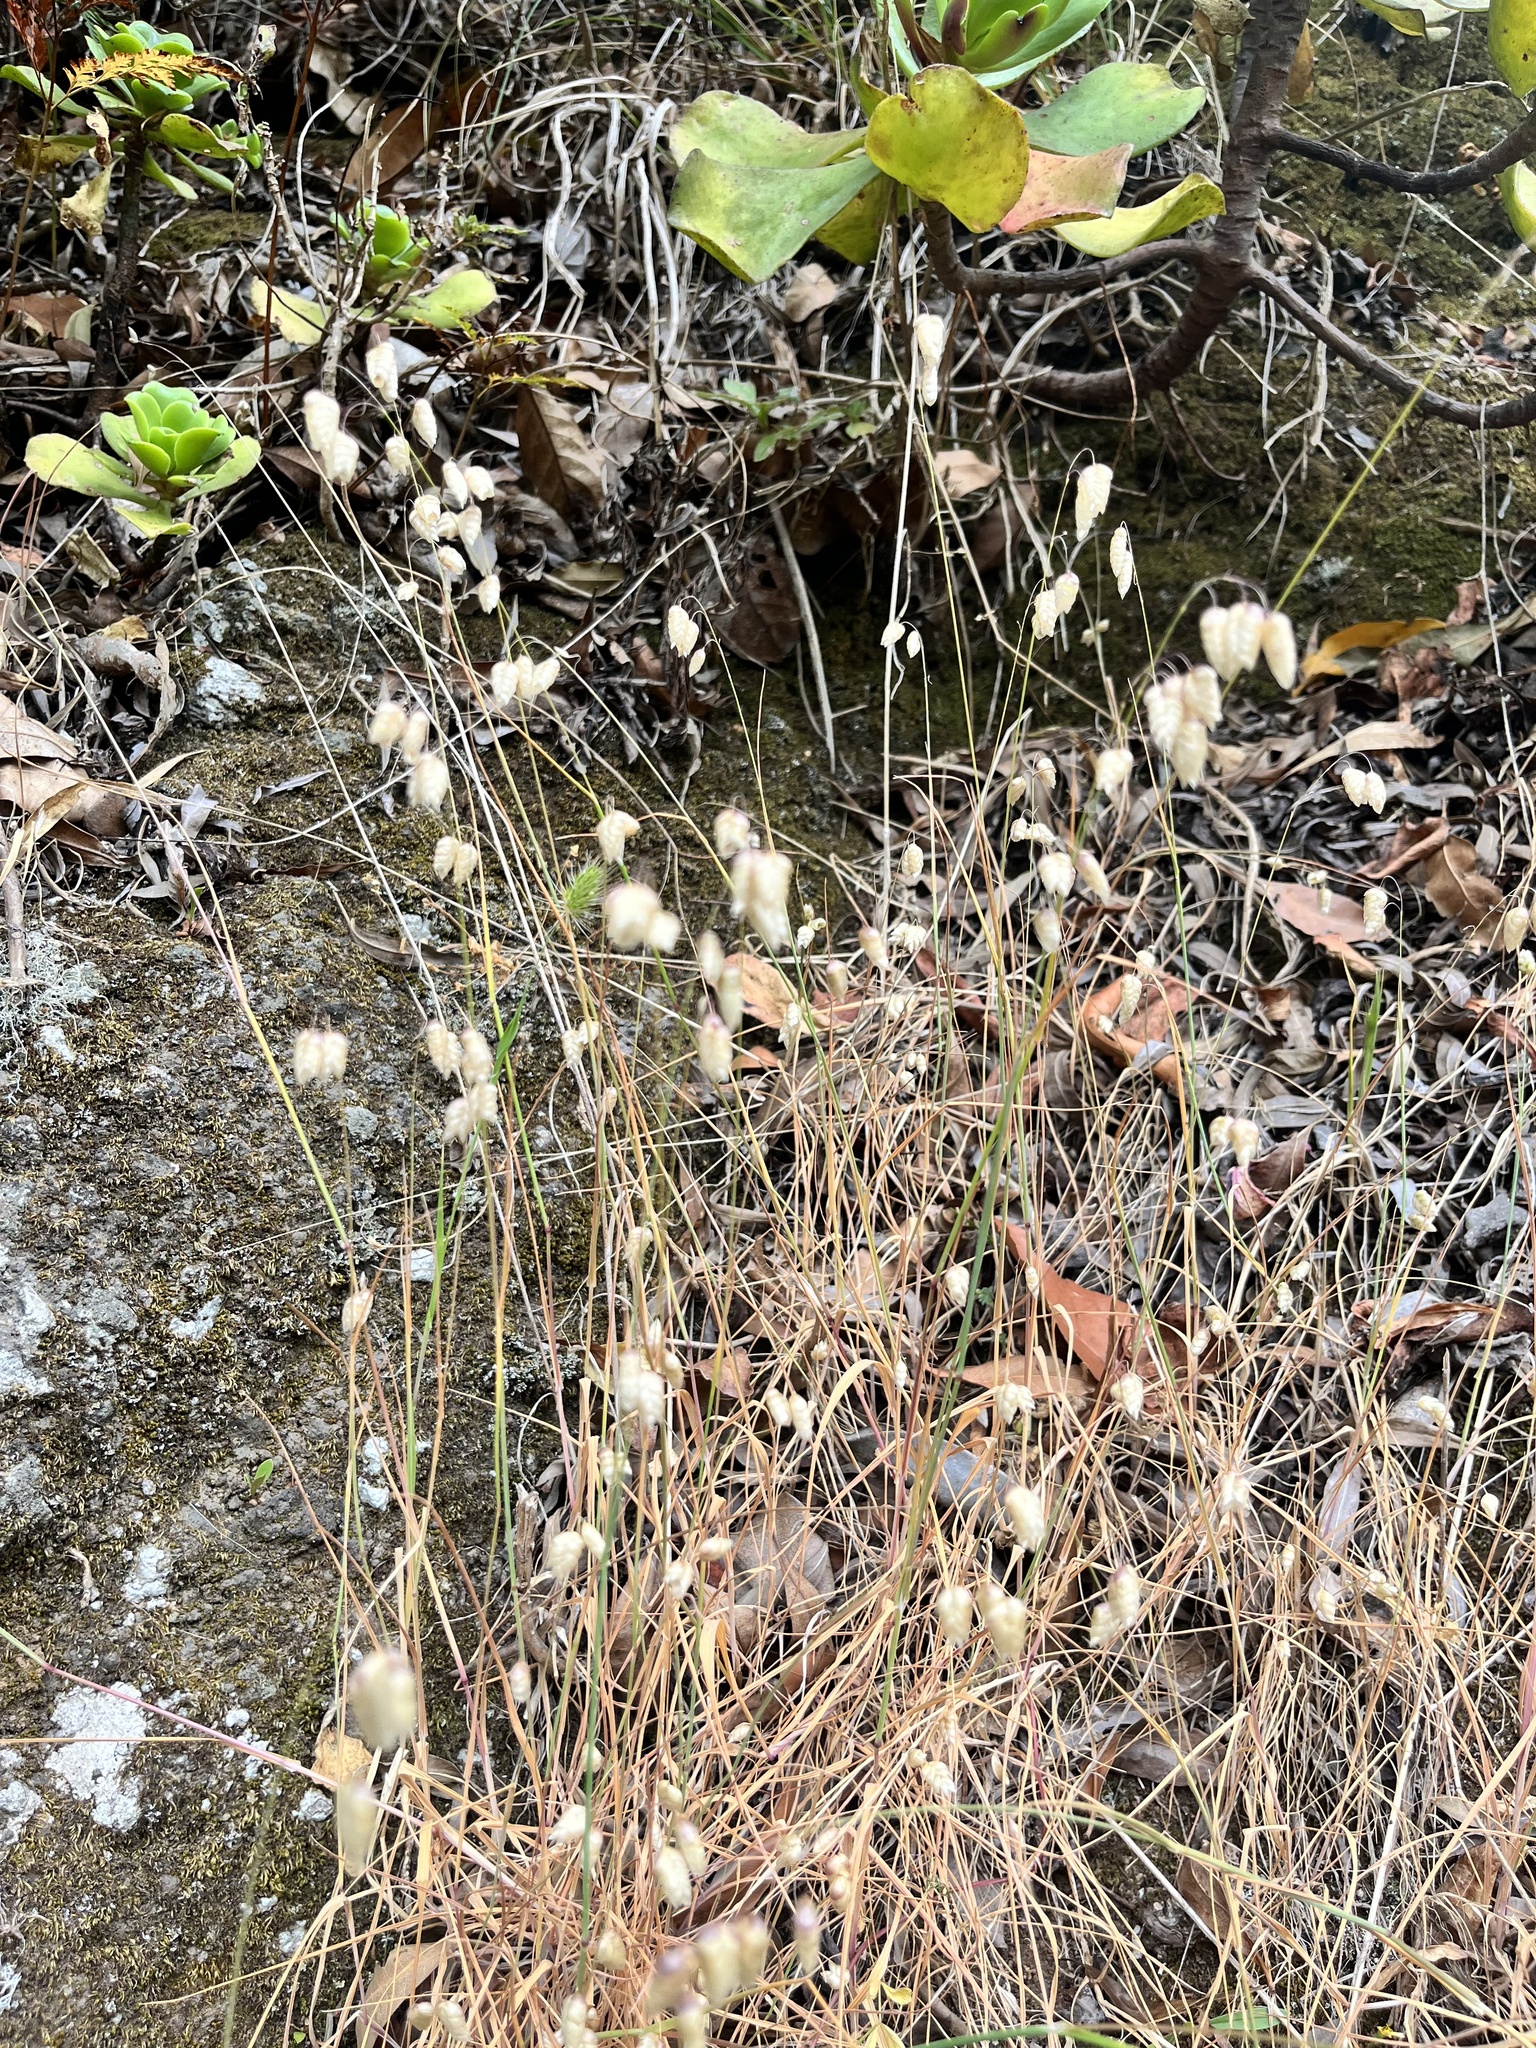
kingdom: Plantae
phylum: Tracheophyta
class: Liliopsida
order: Poales
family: Poaceae
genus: Briza
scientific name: Briza maxima
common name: Big quakinggrass
